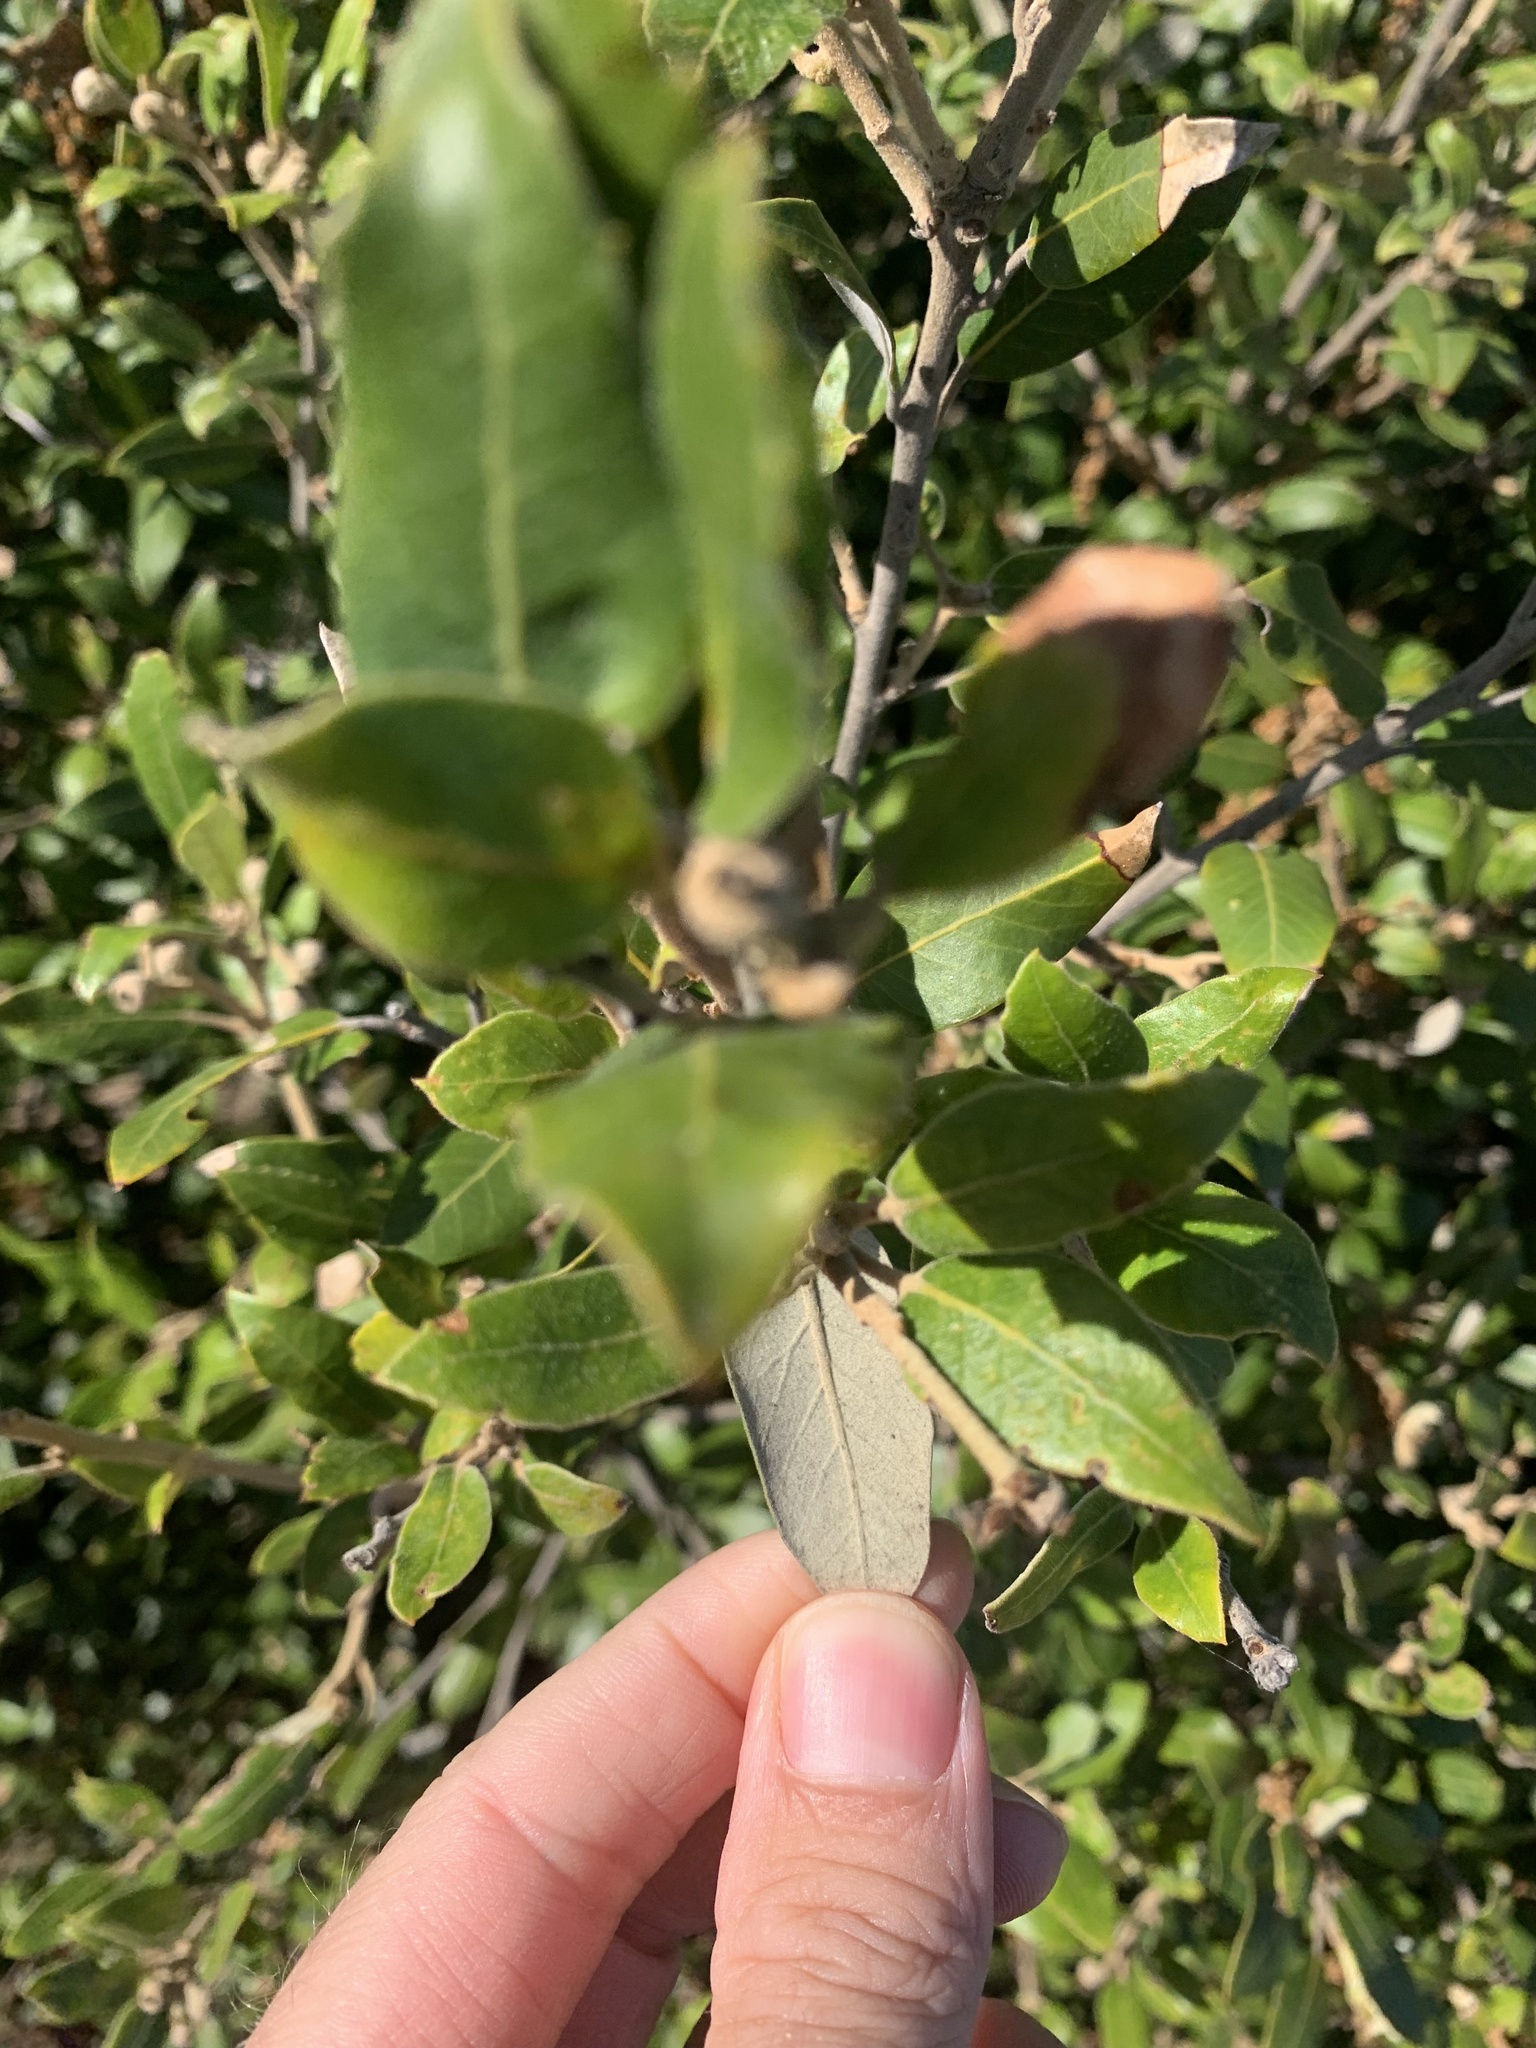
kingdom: Plantae
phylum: Tracheophyta
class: Magnoliopsida
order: Fagales
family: Fagaceae
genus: Quercus
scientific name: Quercus ilex
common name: Evergreen oak
